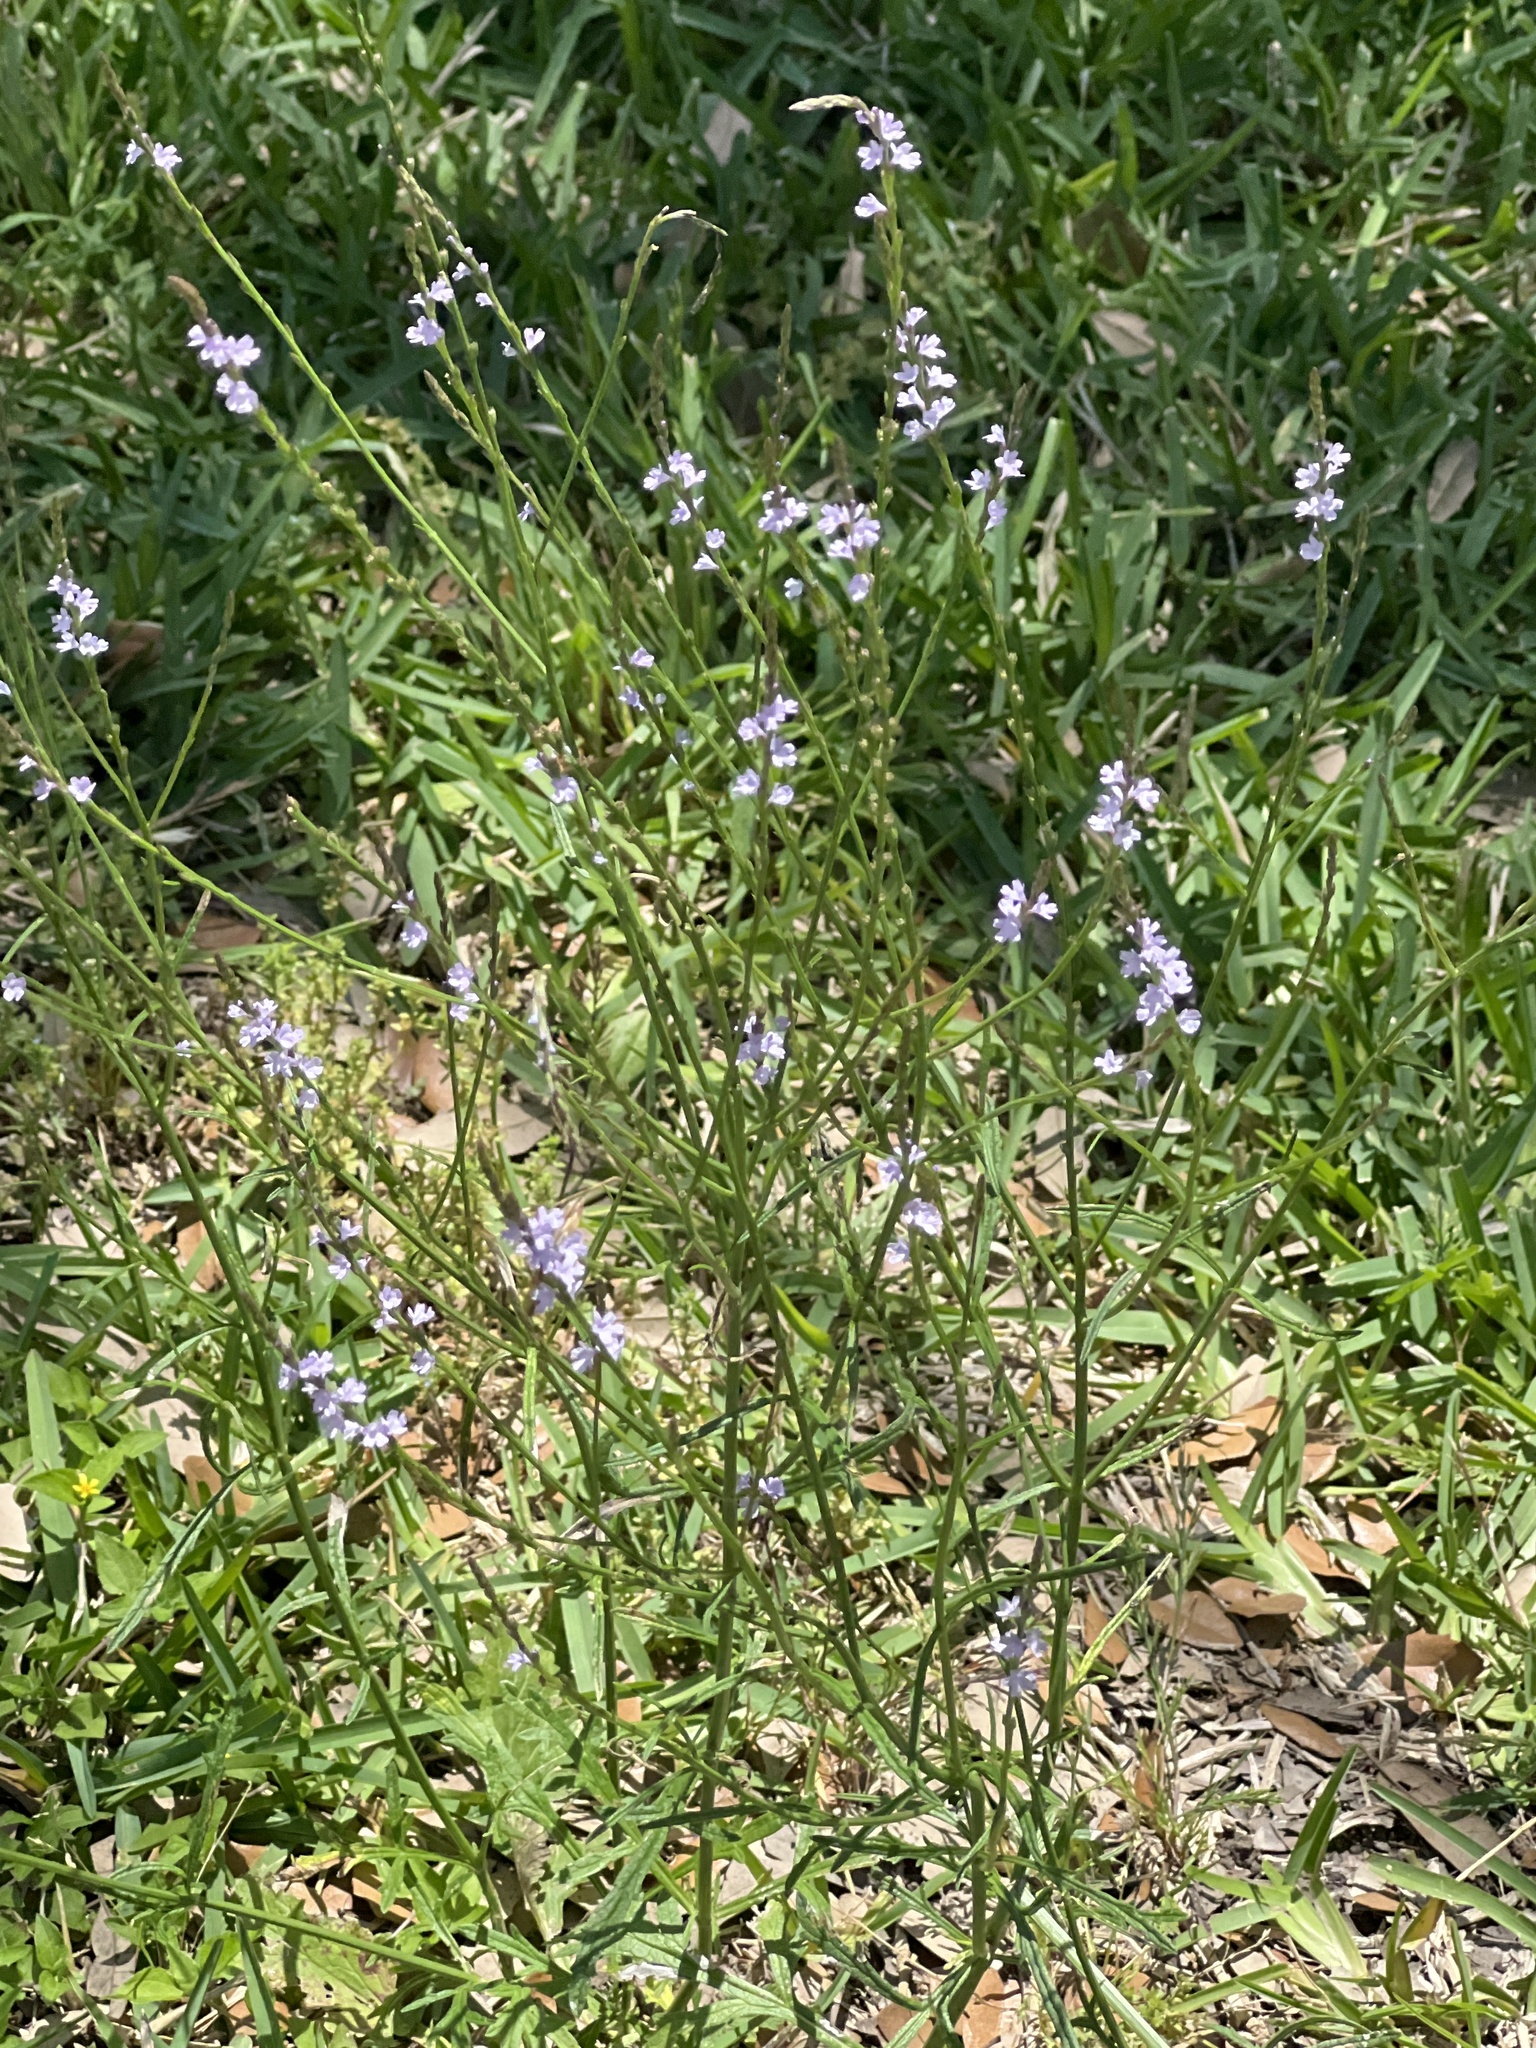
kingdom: Plantae
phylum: Tracheophyta
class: Magnoliopsida
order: Lamiales
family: Verbenaceae
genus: Verbena
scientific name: Verbena halei
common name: Texas vervain
